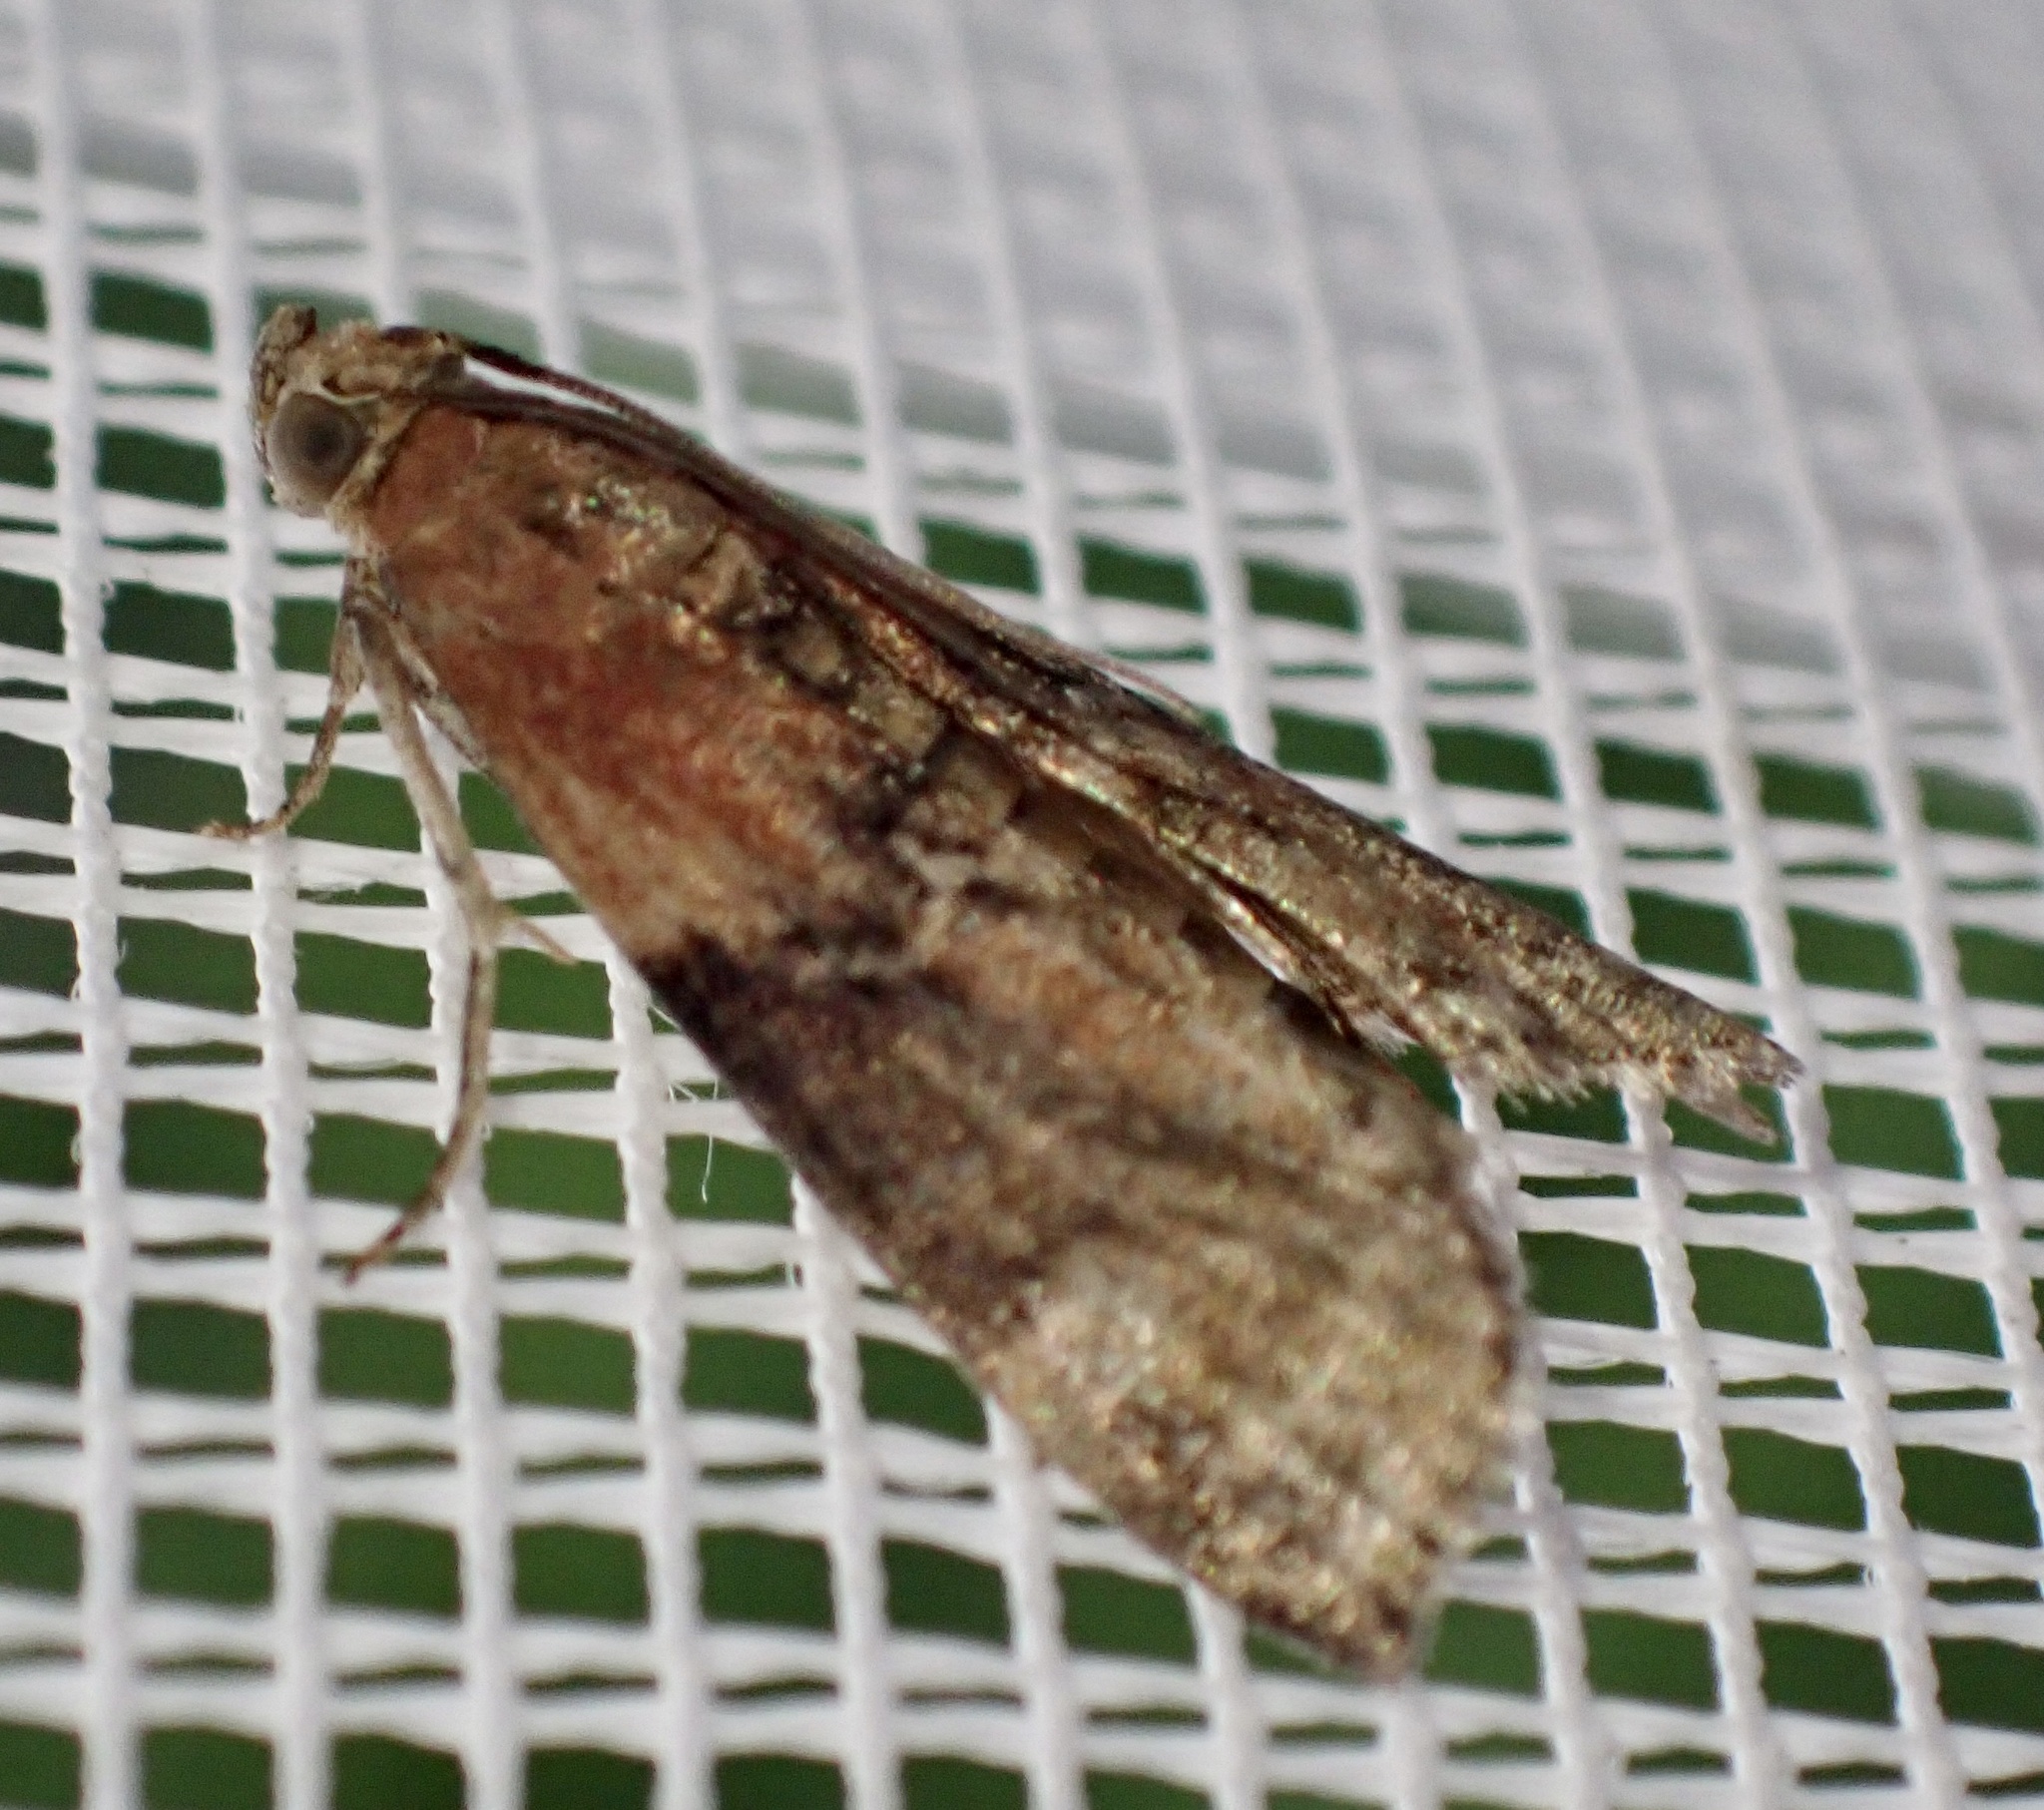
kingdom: Animalia
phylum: Arthropoda
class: Insecta
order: Lepidoptera
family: Pyralidae
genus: Sciota
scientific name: Sciota adelphella
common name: Willow knot-horn
